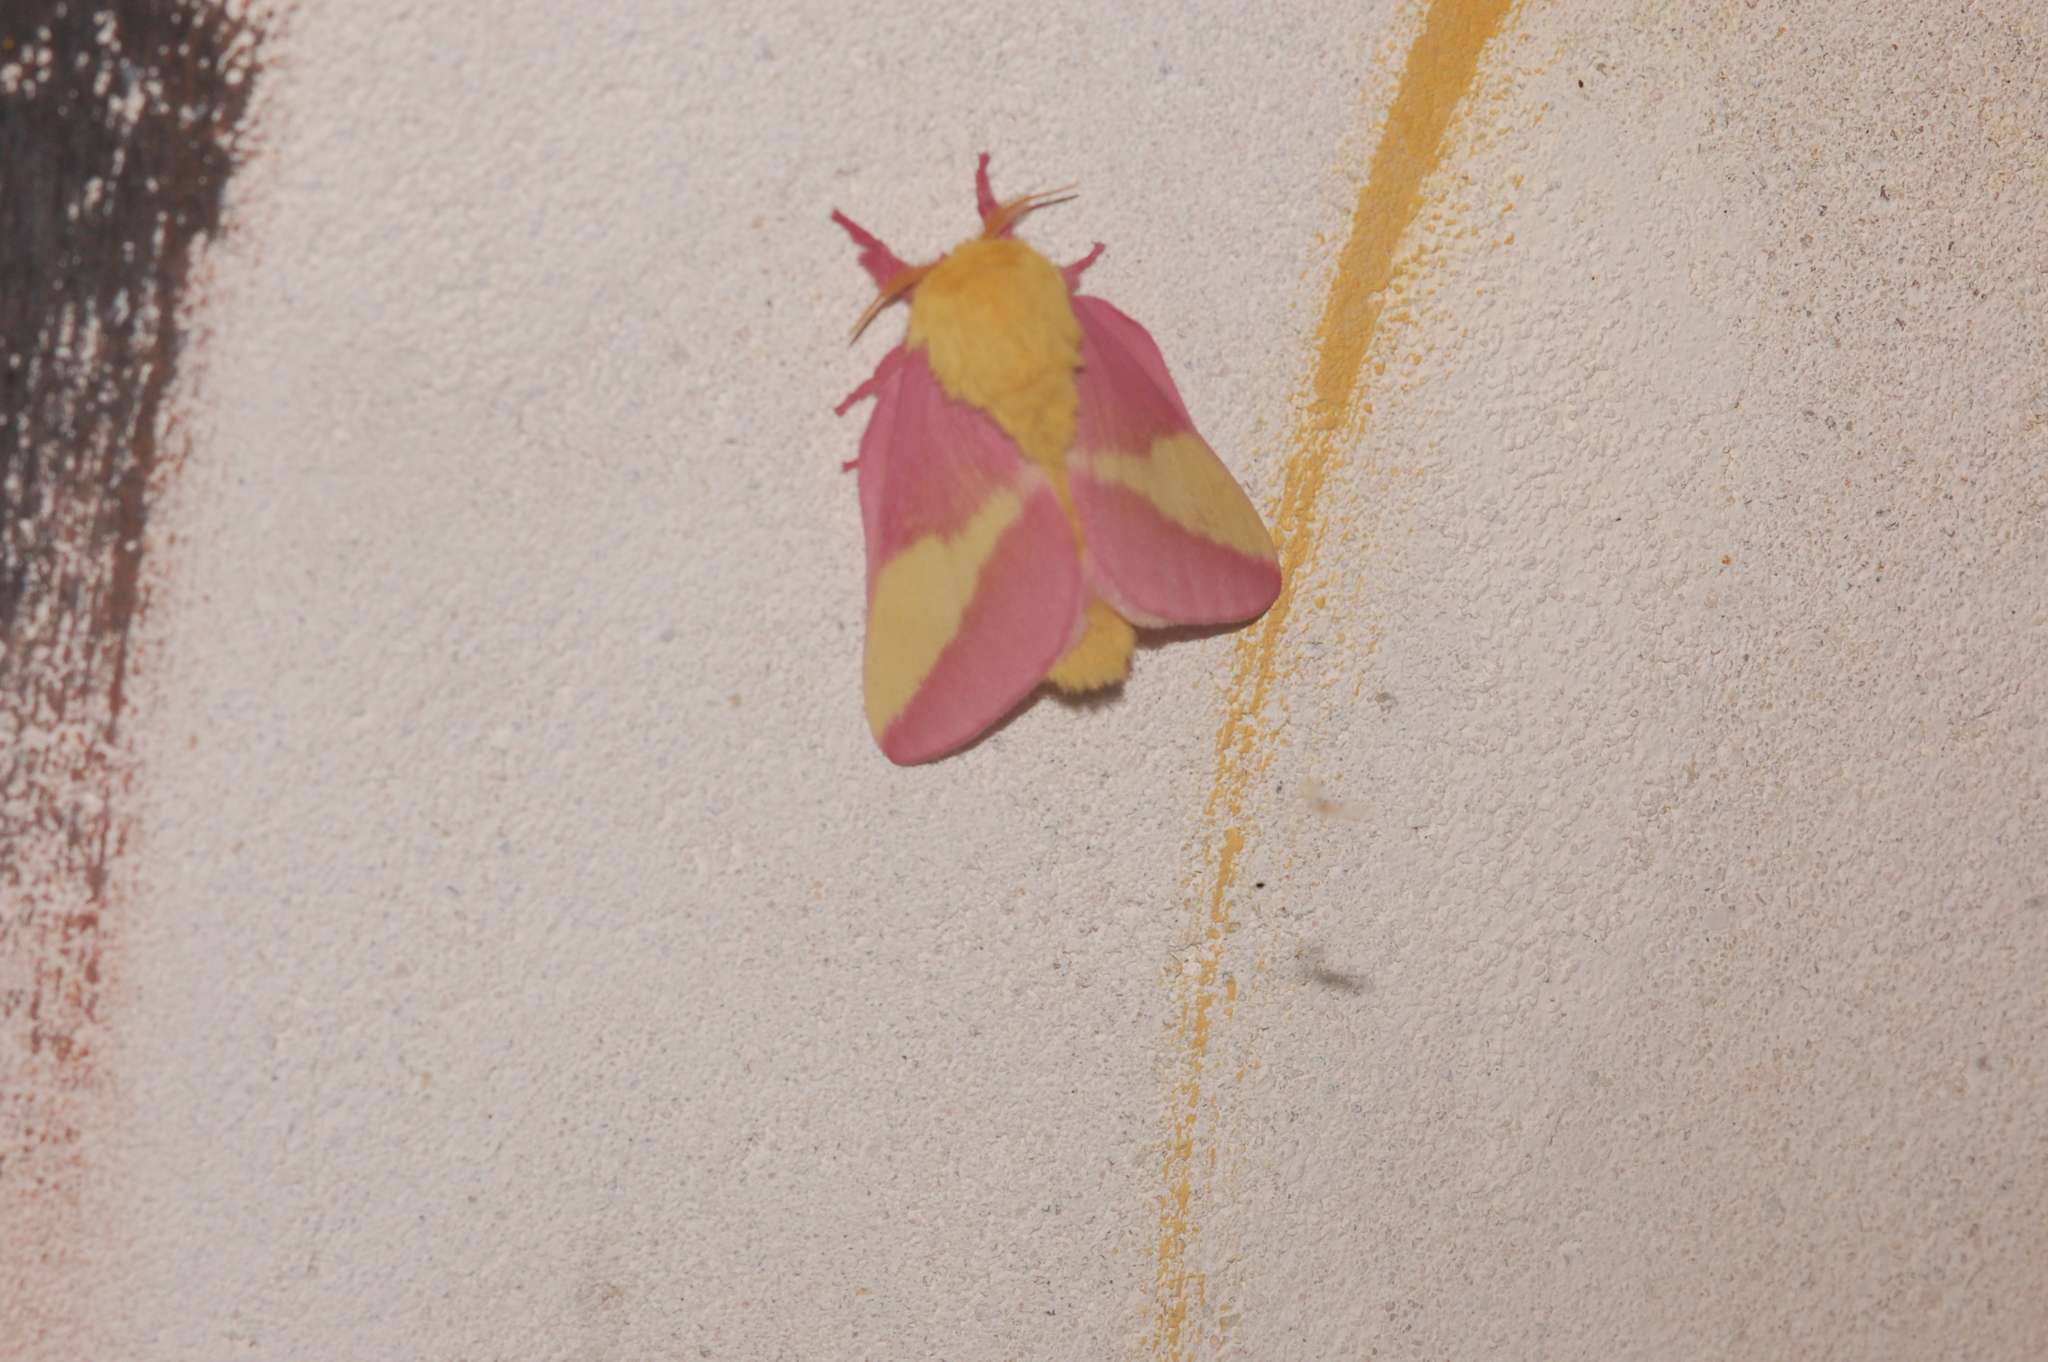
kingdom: Animalia
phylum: Arthropoda
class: Insecta
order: Lepidoptera
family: Saturniidae
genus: Dryocampa
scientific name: Dryocampa rubicunda
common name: Rosy maple moth
